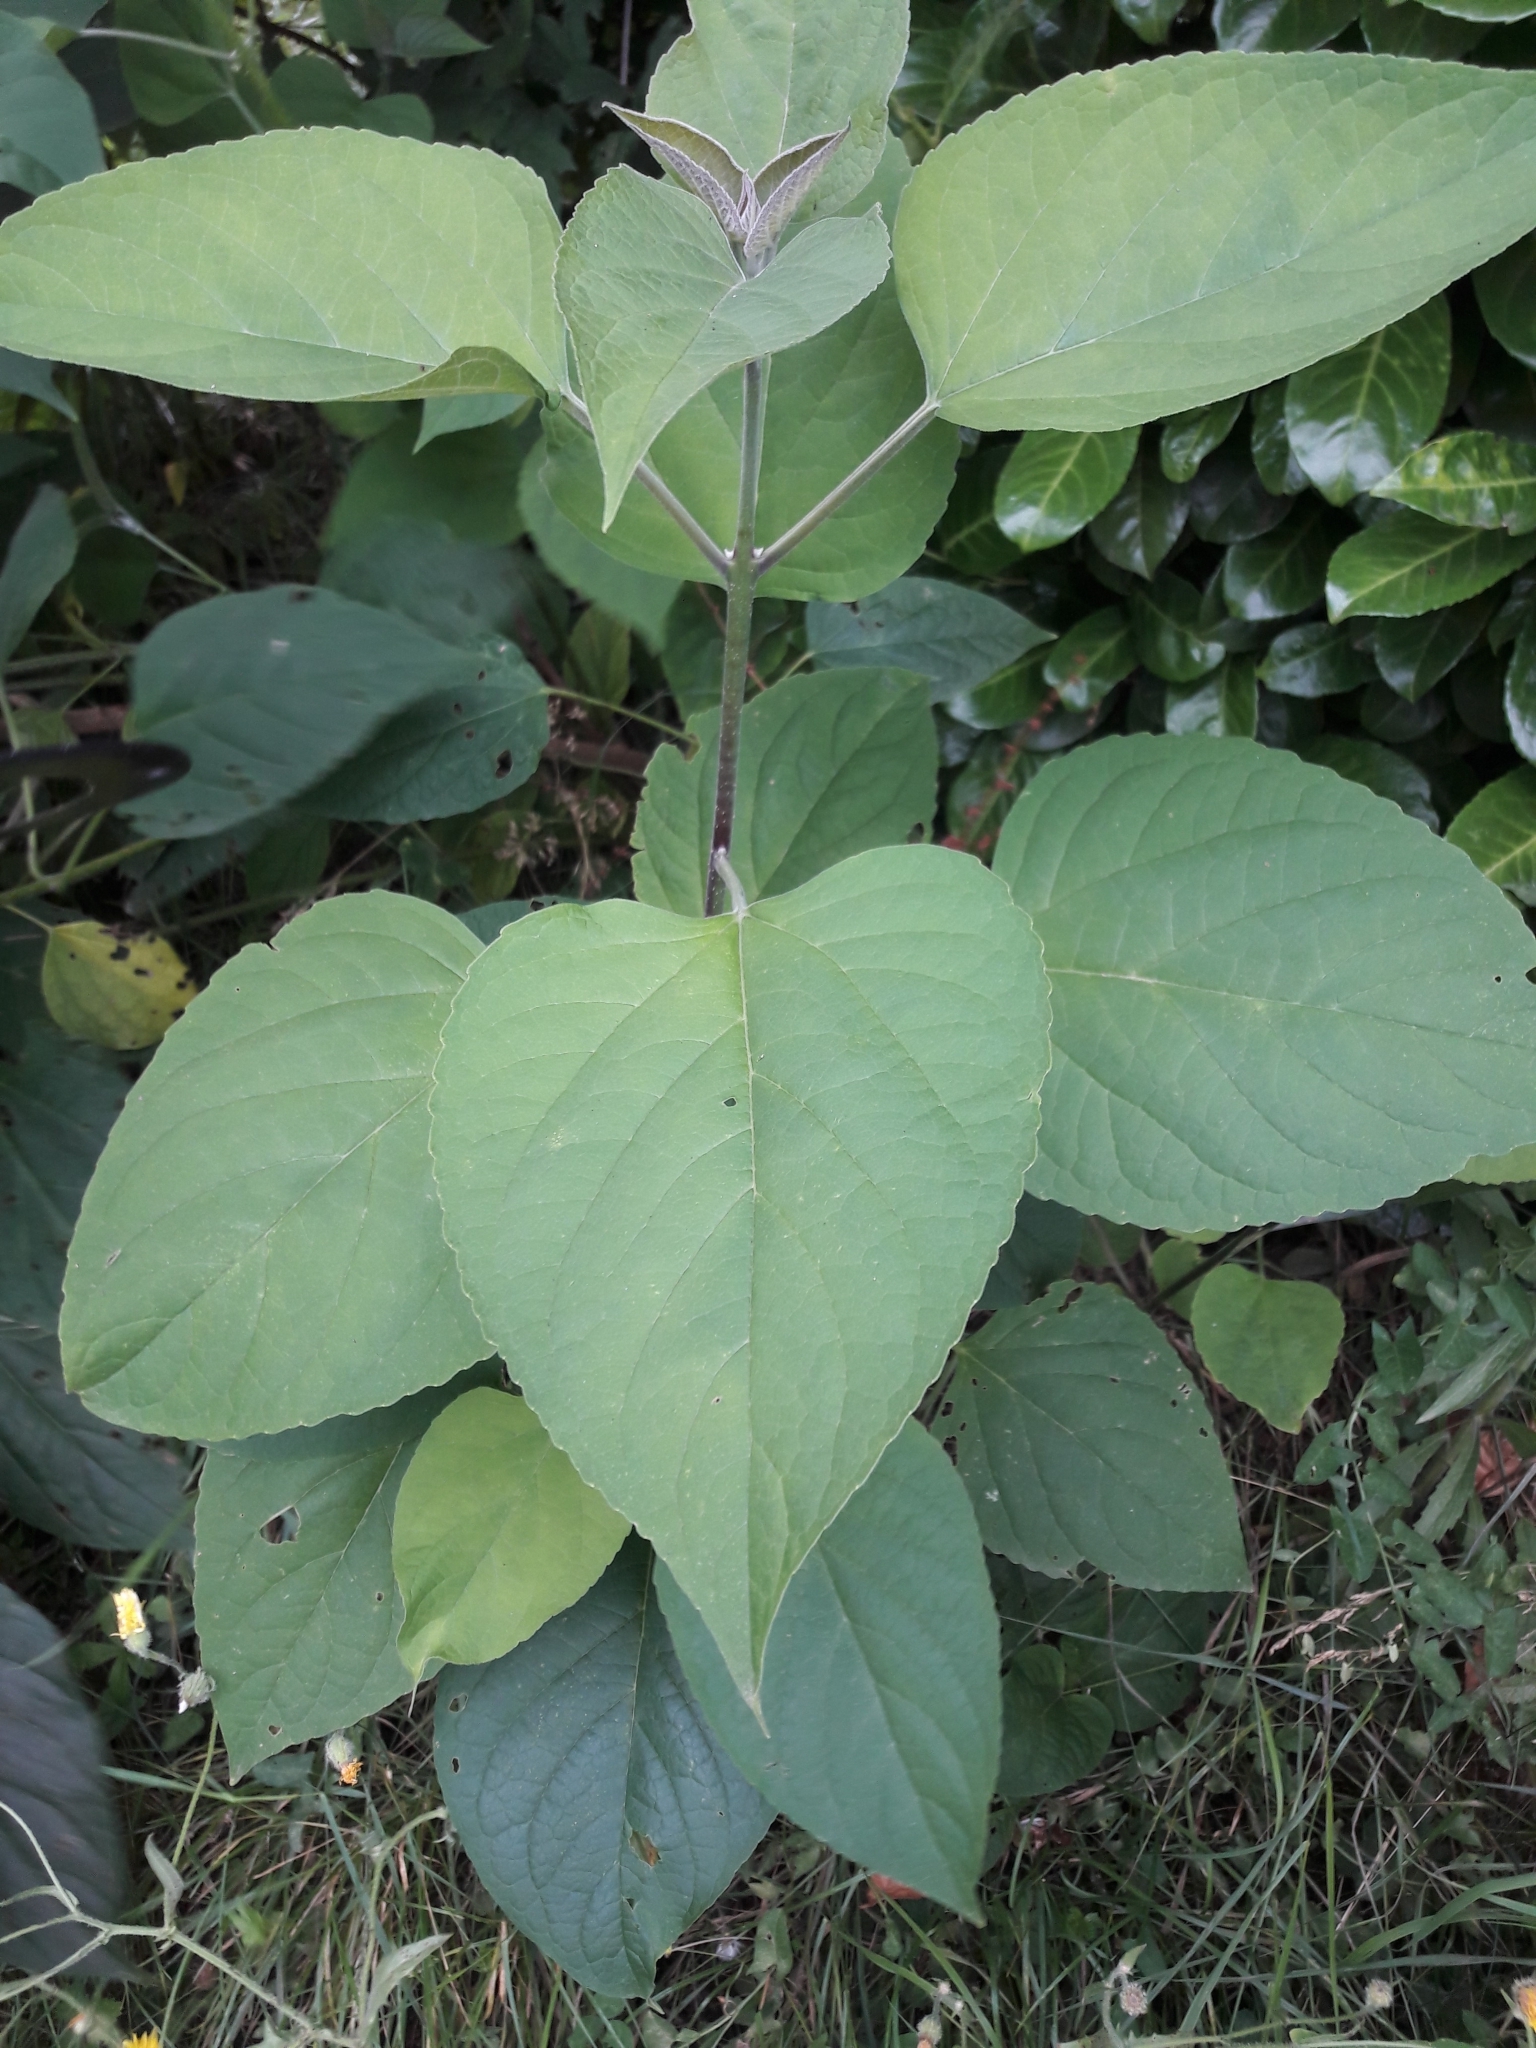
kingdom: Plantae
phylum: Tracheophyta
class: Magnoliopsida
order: Lamiales
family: Lamiaceae
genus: Clerodendrum
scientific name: Clerodendrum trichotomum
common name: Harlequin glorybower
